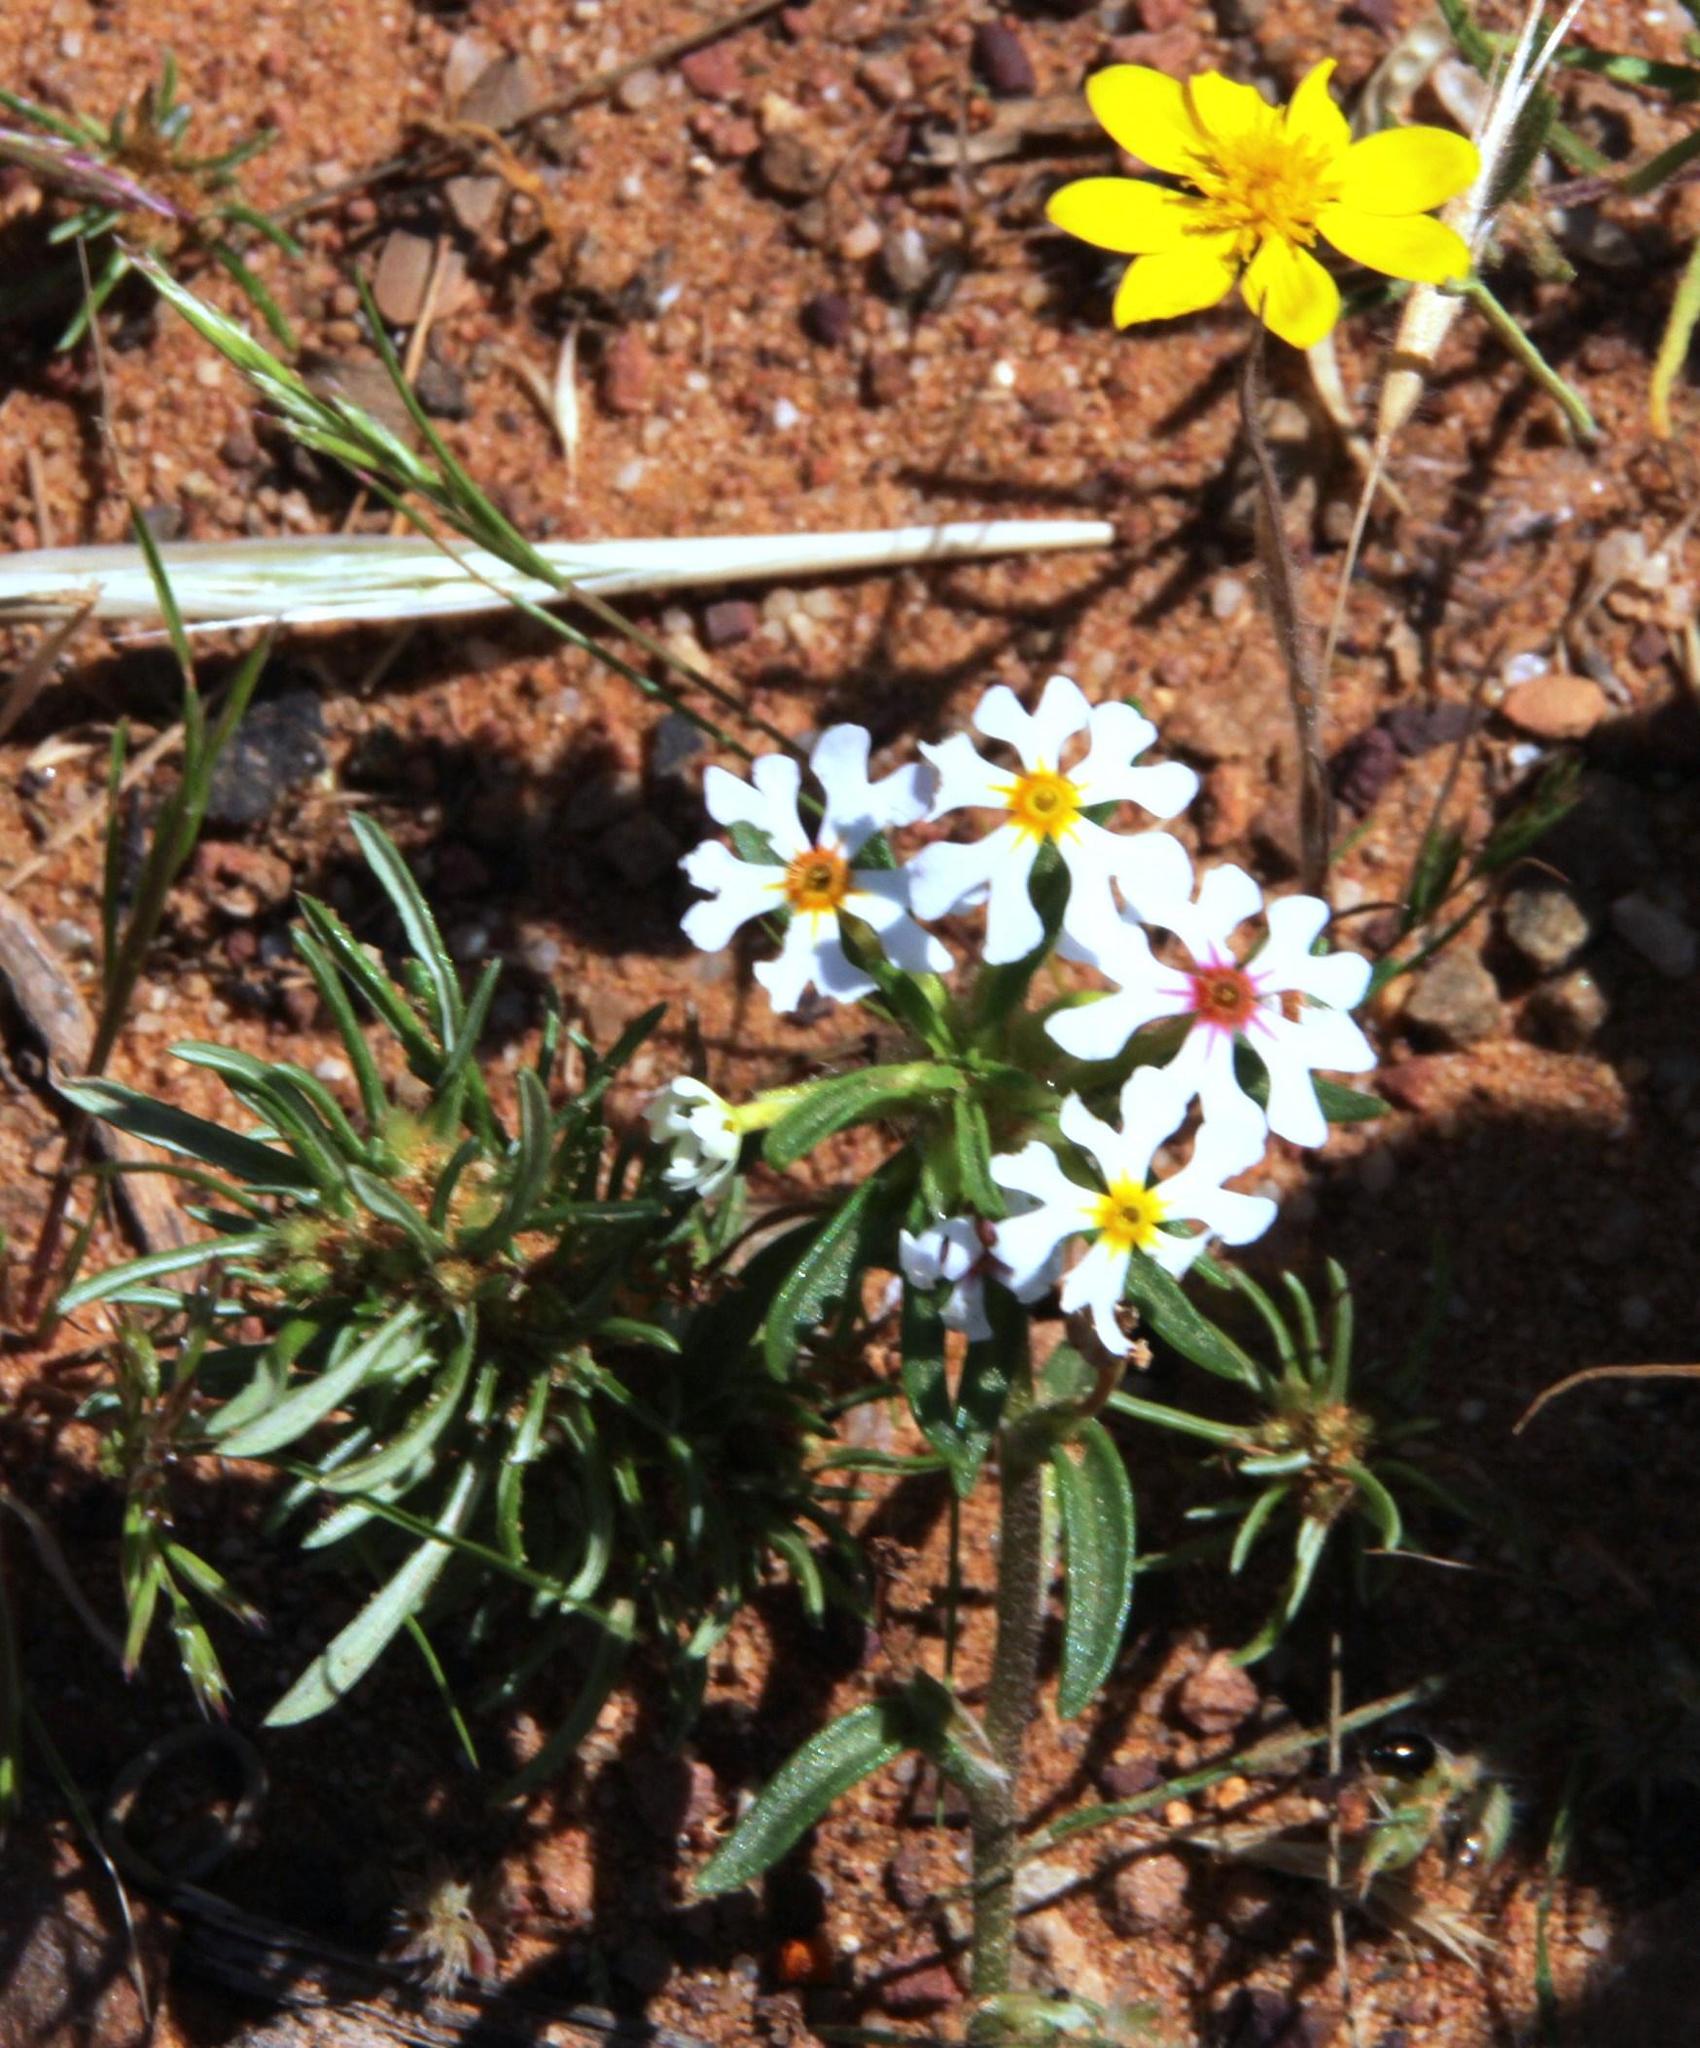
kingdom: Plantae
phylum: Tracheophyta
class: Magnoliopsida
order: Lamiales
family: Scrophulariaceae
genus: Zaluzianskya
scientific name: Zaluzianskya affinis
